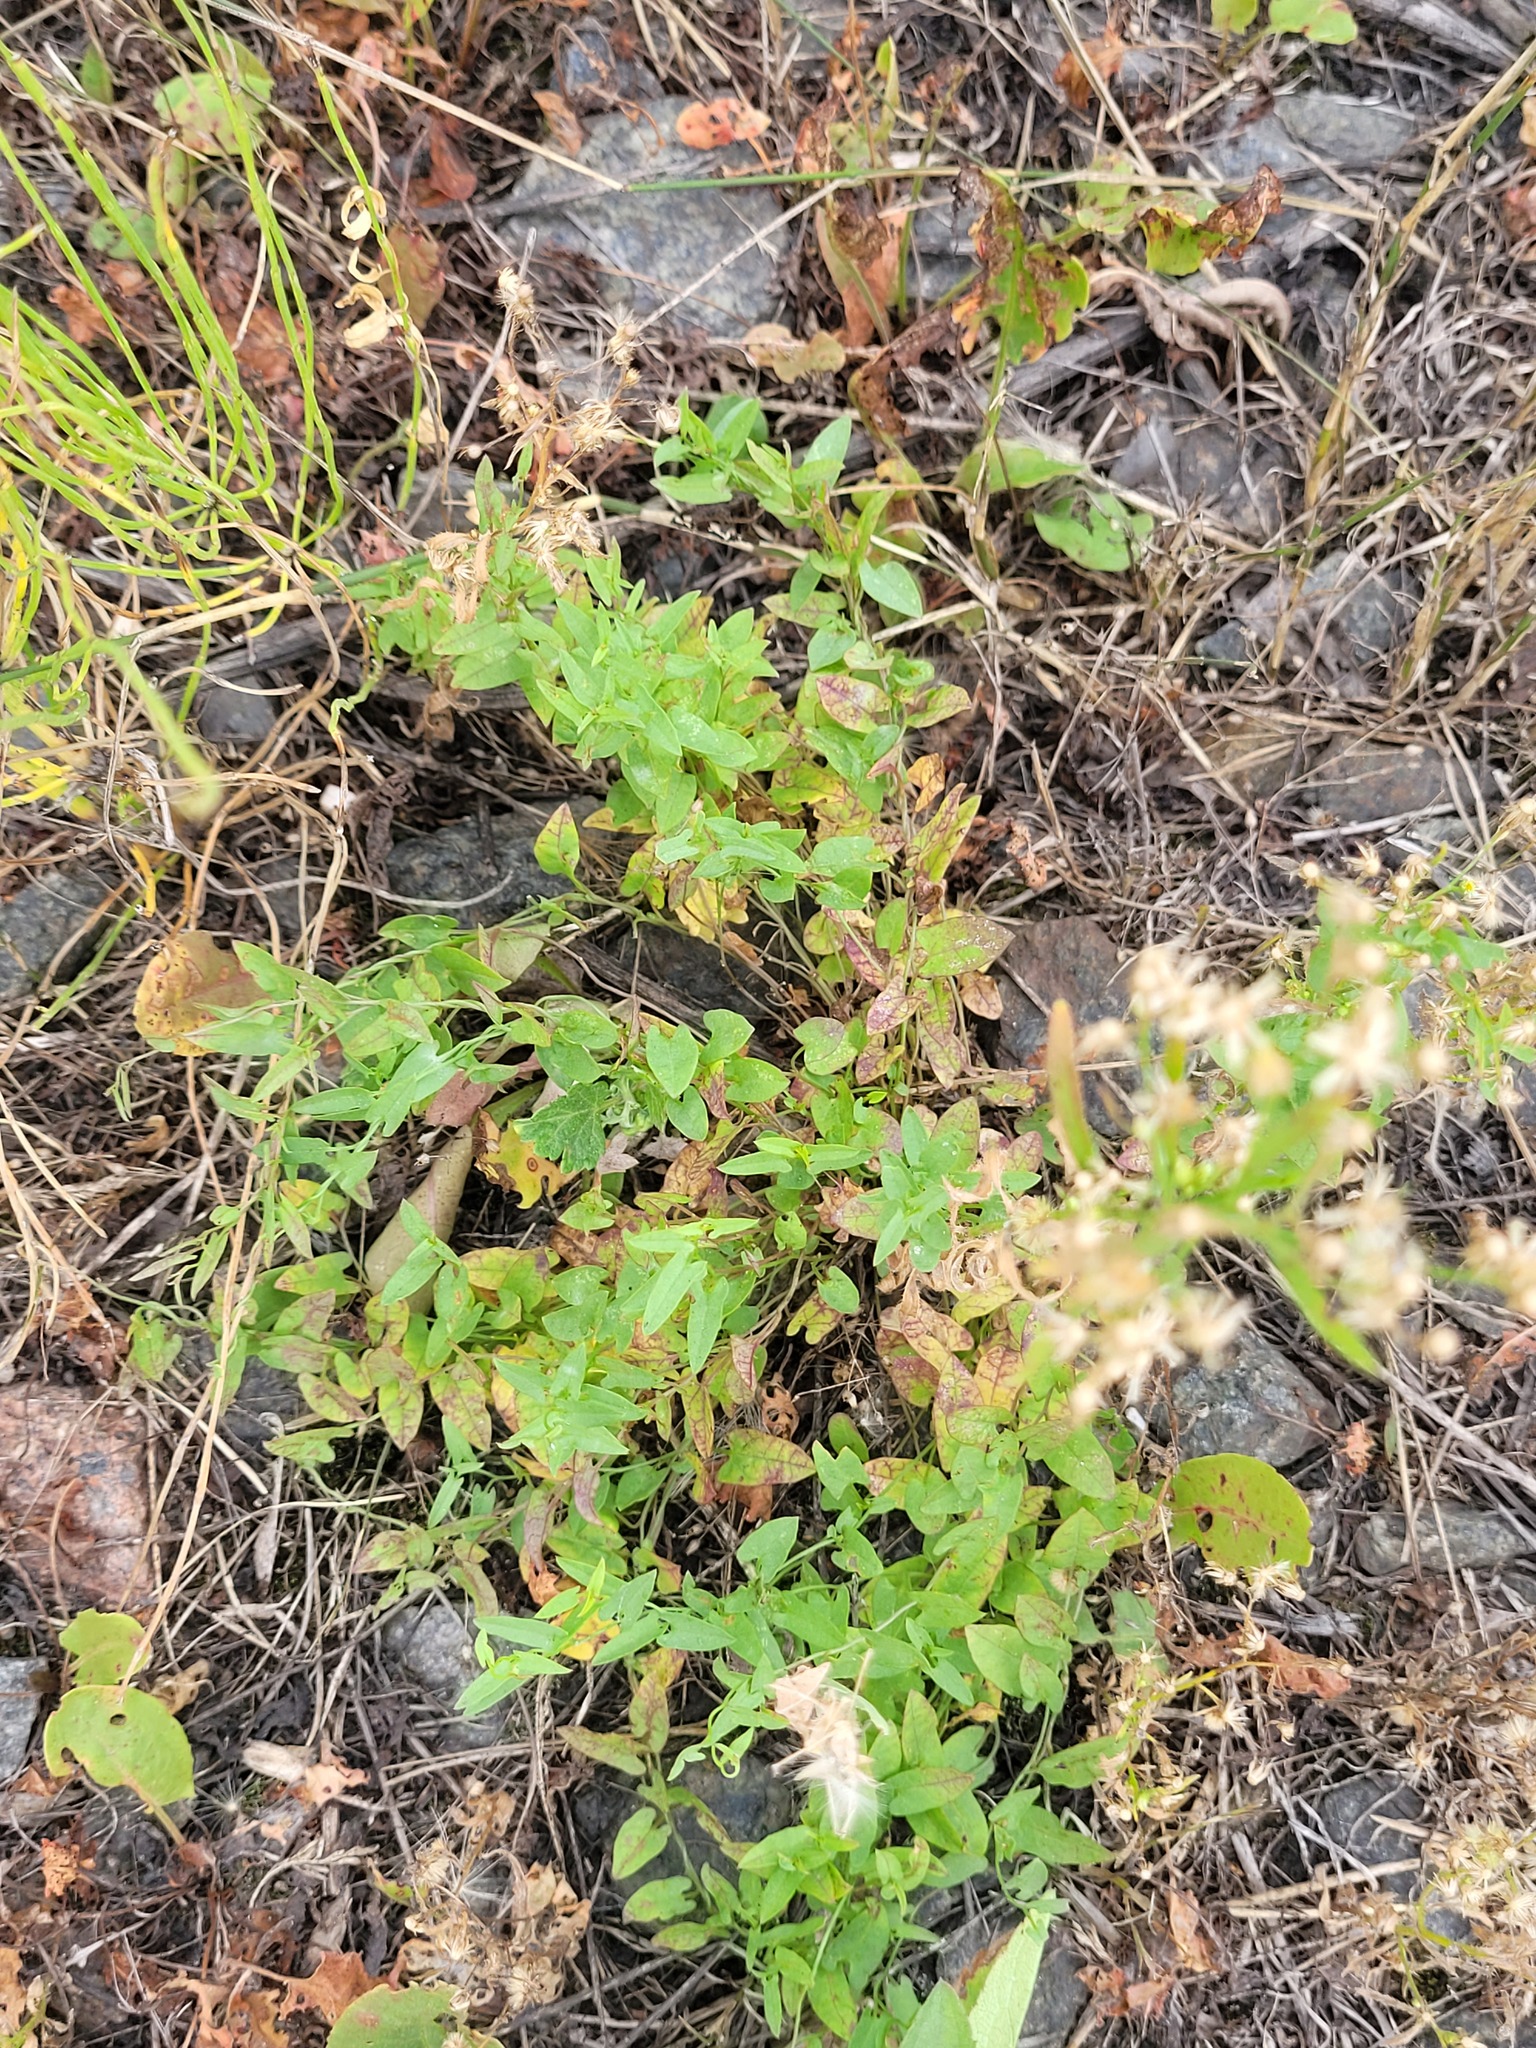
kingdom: Plantae
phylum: Tracheophyta
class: Magnoliopsida
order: Solanales
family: Convolvulaceae
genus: Convolvulus
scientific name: Convolvulus arvensis
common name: Field bindweed
